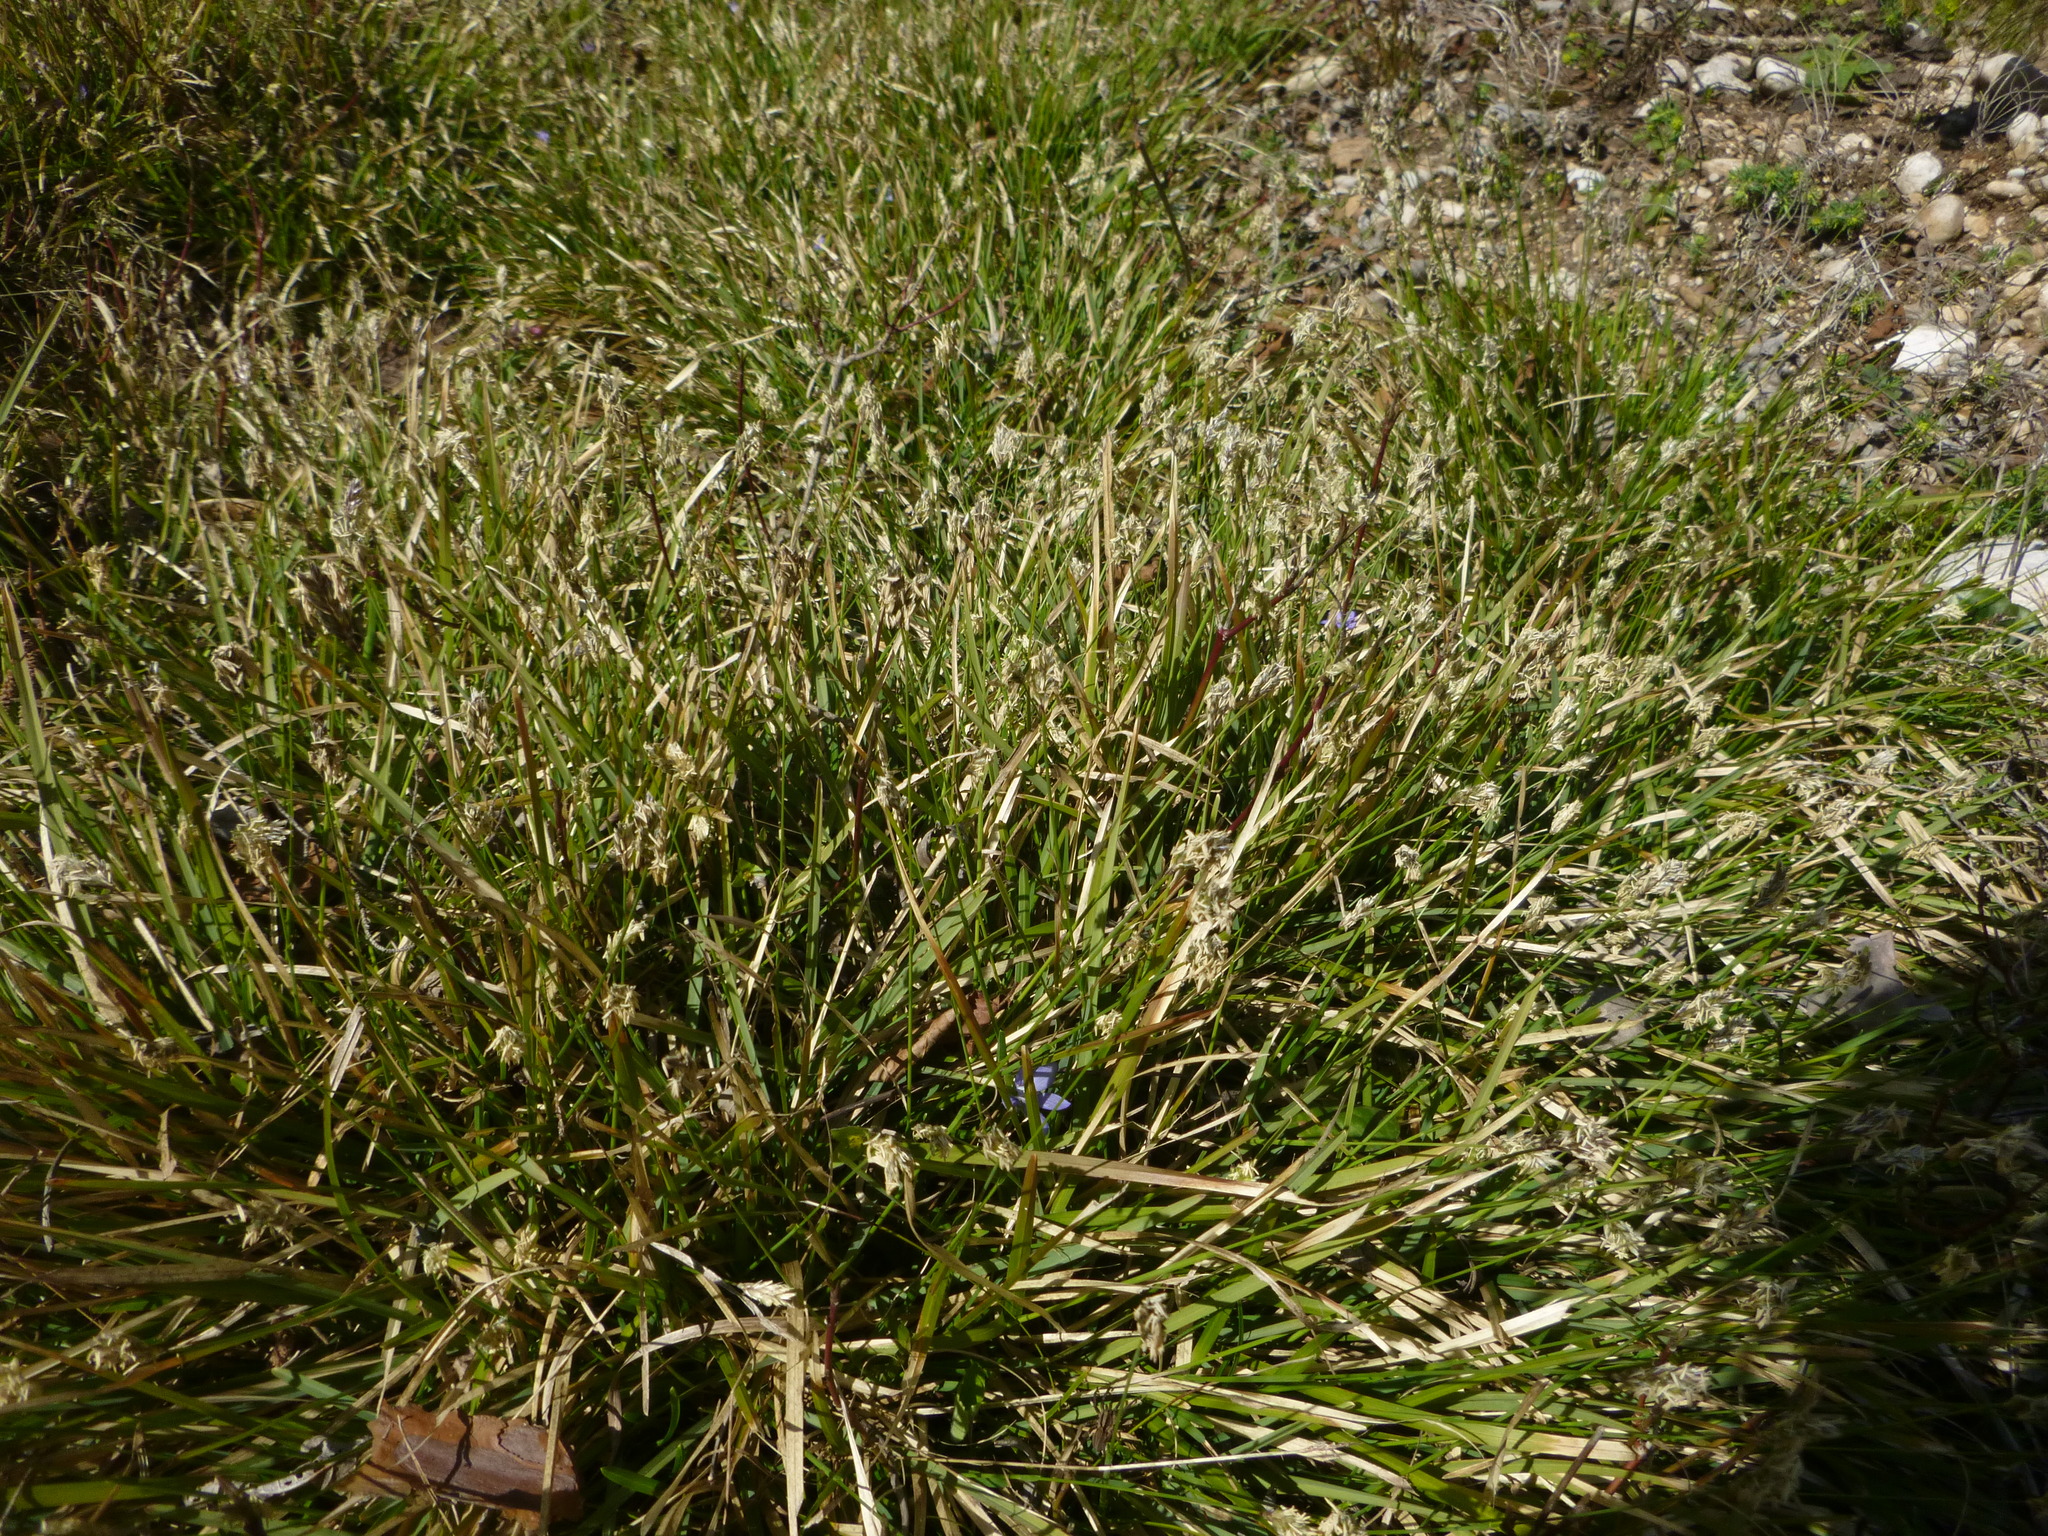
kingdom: Plantae
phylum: Tracheophyta
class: Liliopsida
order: Poales
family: Poaceae
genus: Sesleria
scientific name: Sesleria caerulea
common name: Blue moor-grass
